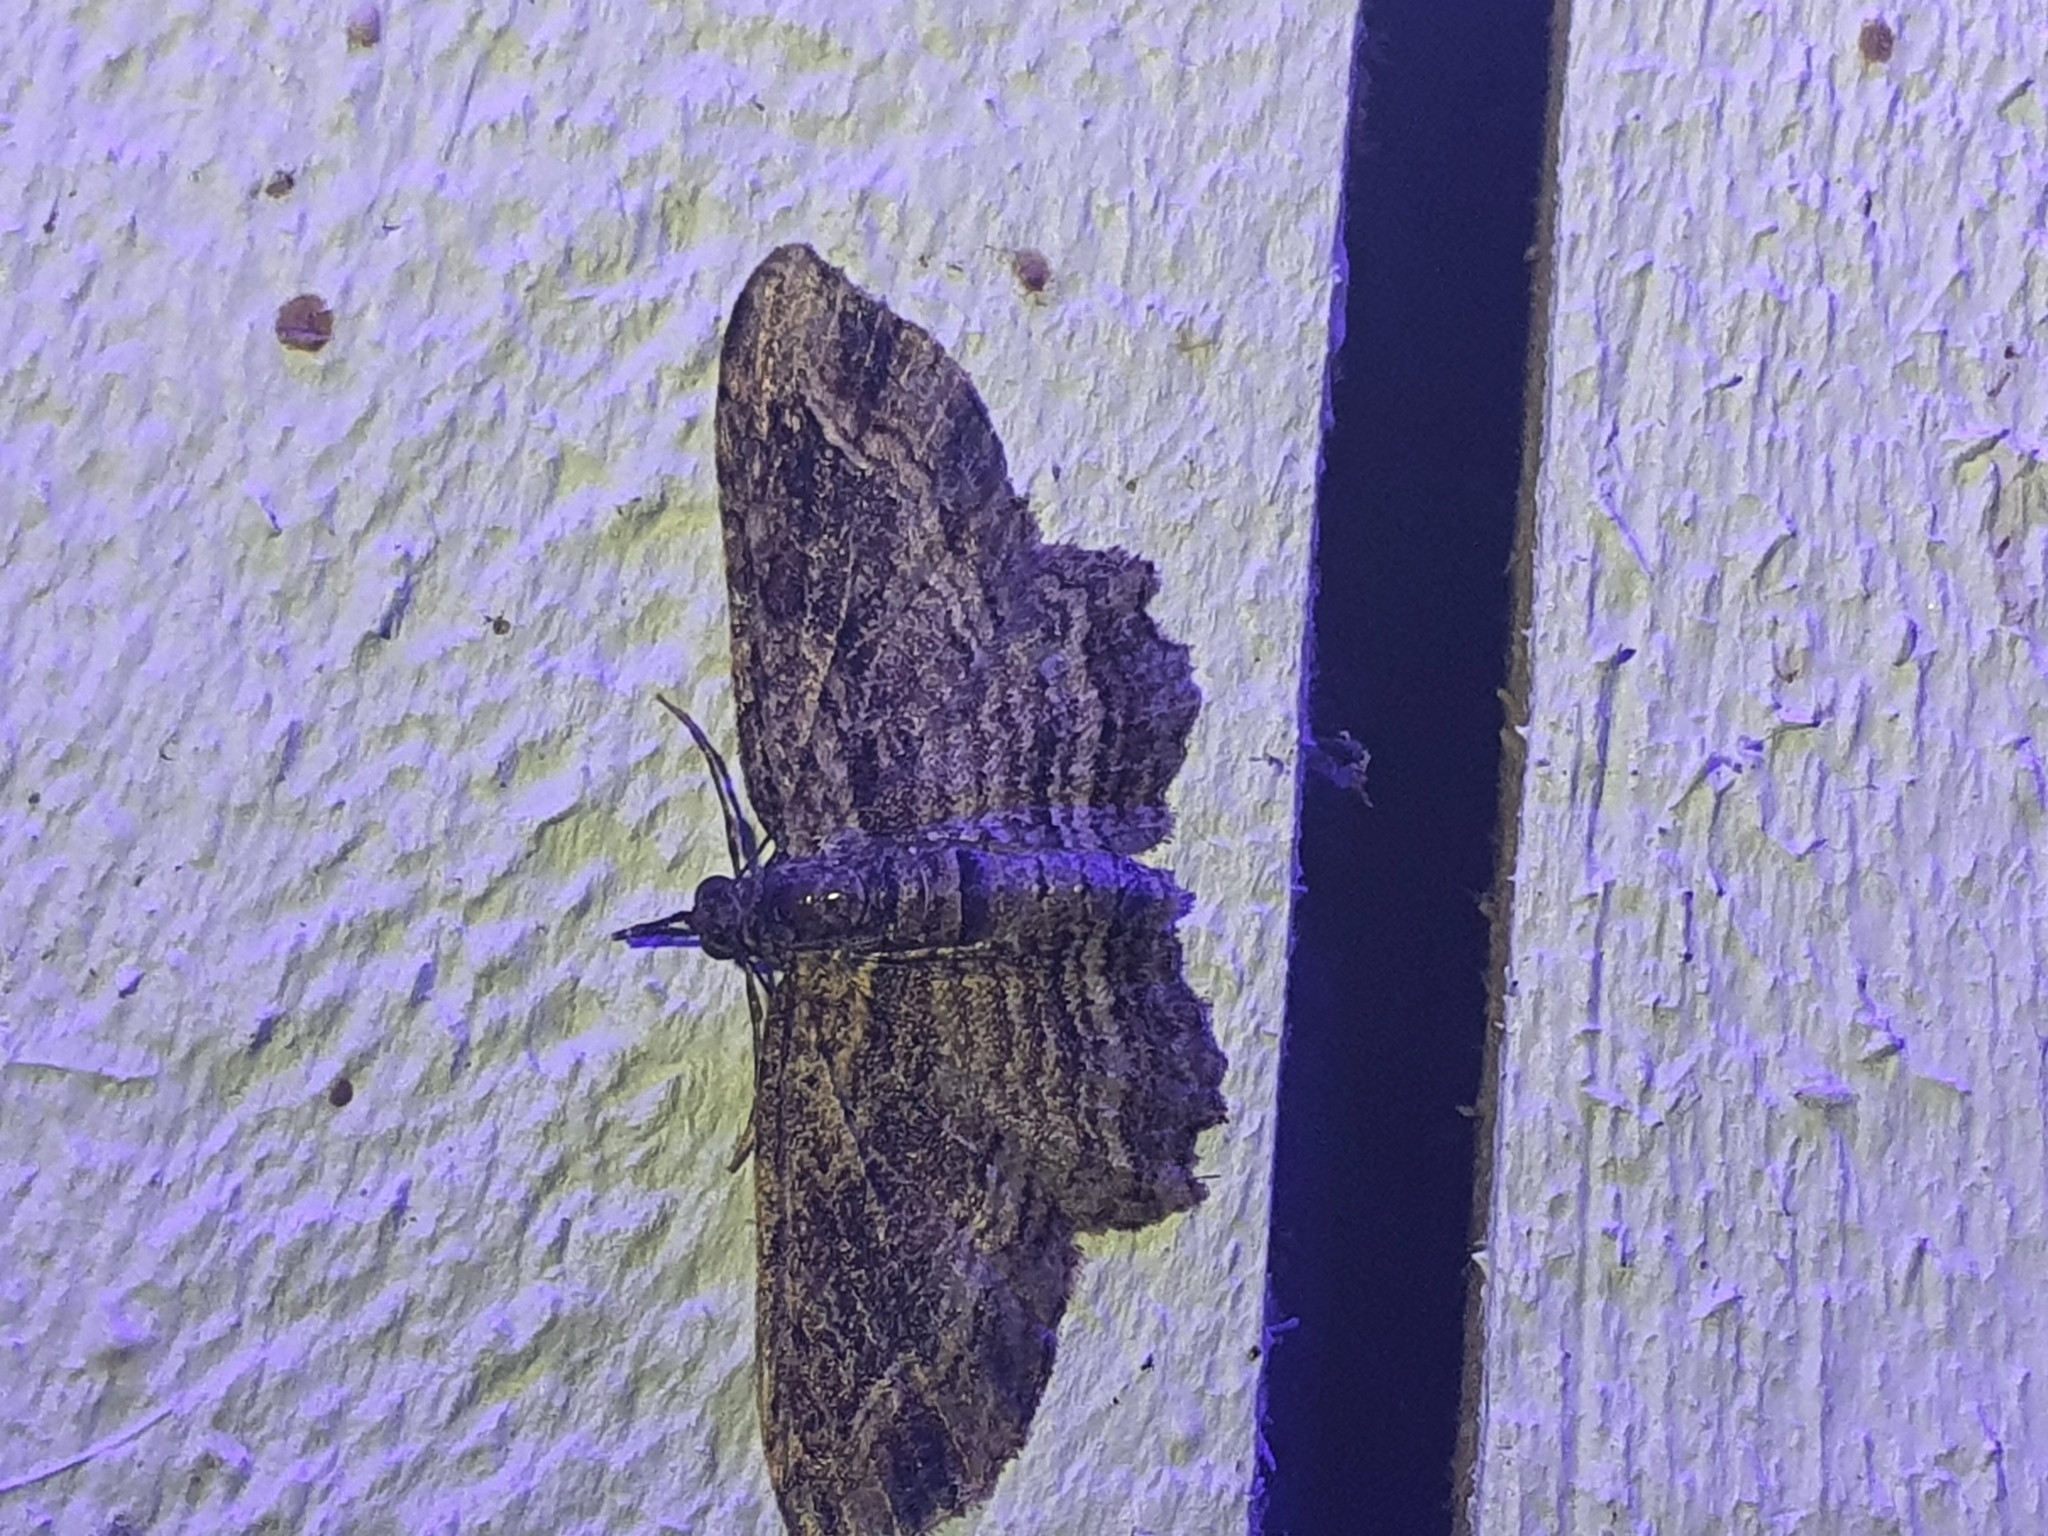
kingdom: Animalia
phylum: Arthropoda
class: Insecta
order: Lepidoptera
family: Geometridae
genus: Chloroclystis
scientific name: Chloroclystis filata
